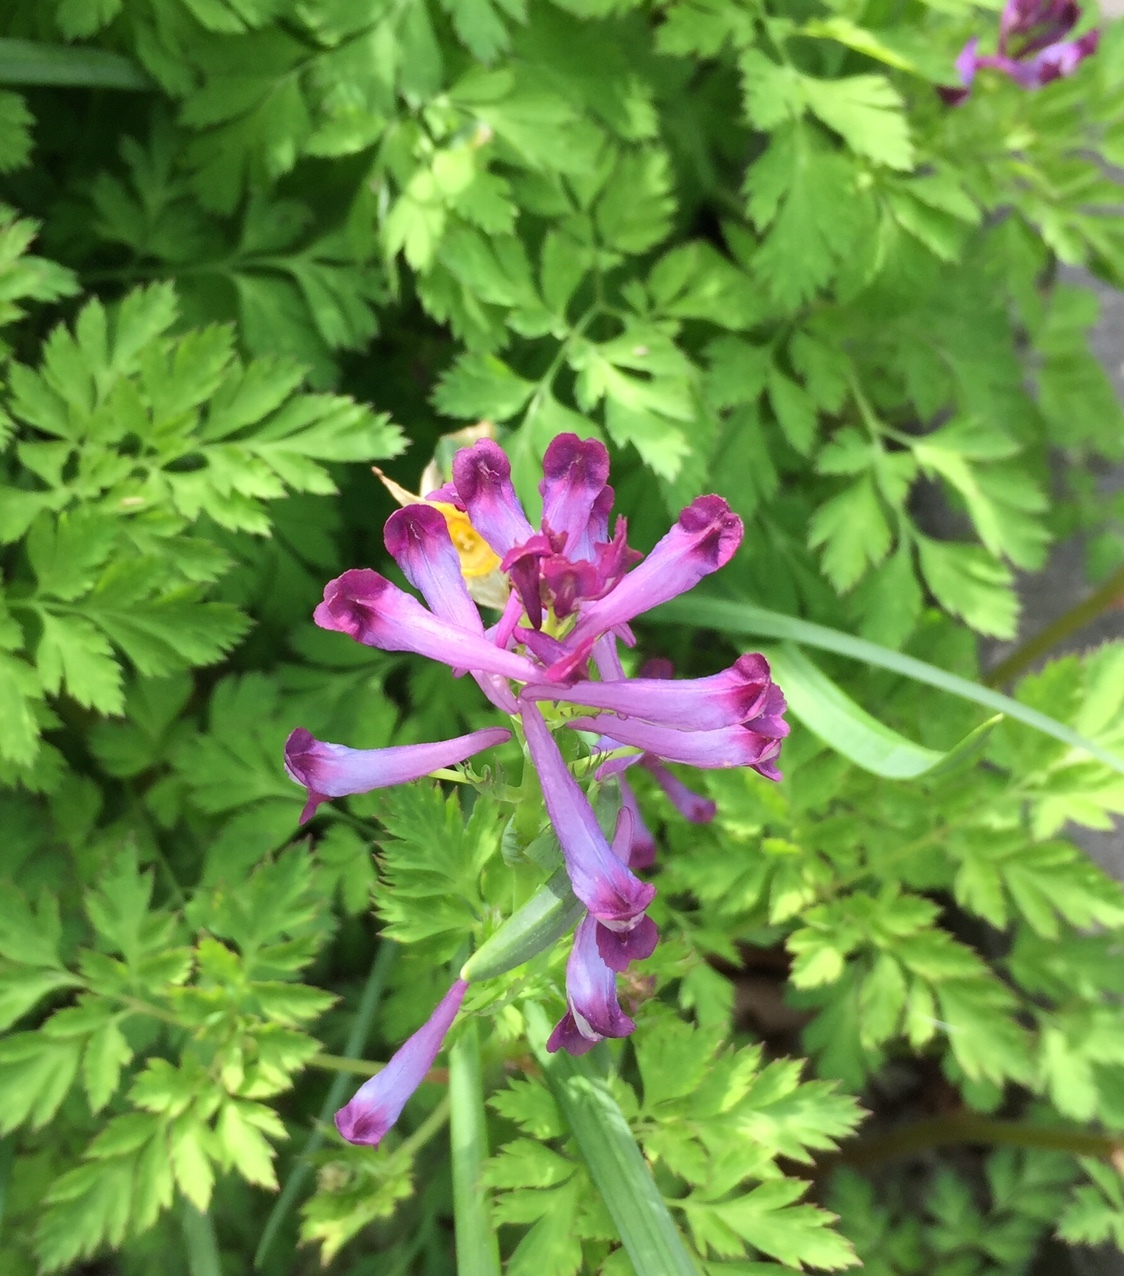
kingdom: Plantae
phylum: Tracheophyta
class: Magnoliopsida
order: Ranunculales
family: Papaveraceae
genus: Corydalis
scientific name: Corydalis incisa
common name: Incised fumewort
